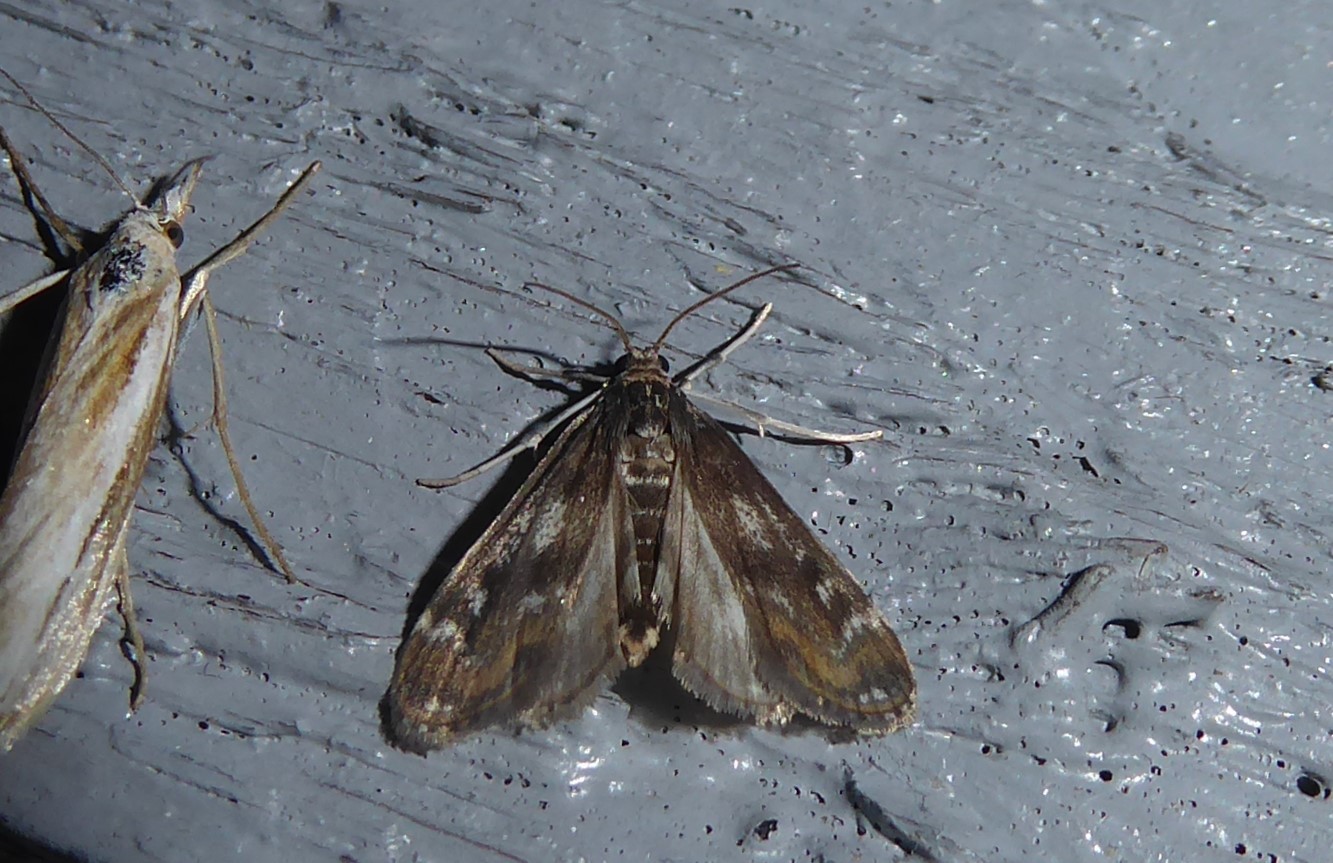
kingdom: Animalia
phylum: Arthropoda
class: Insecta
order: Lepidoptera
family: Crambidae
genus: Hygraula
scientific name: Hygraula nitens
